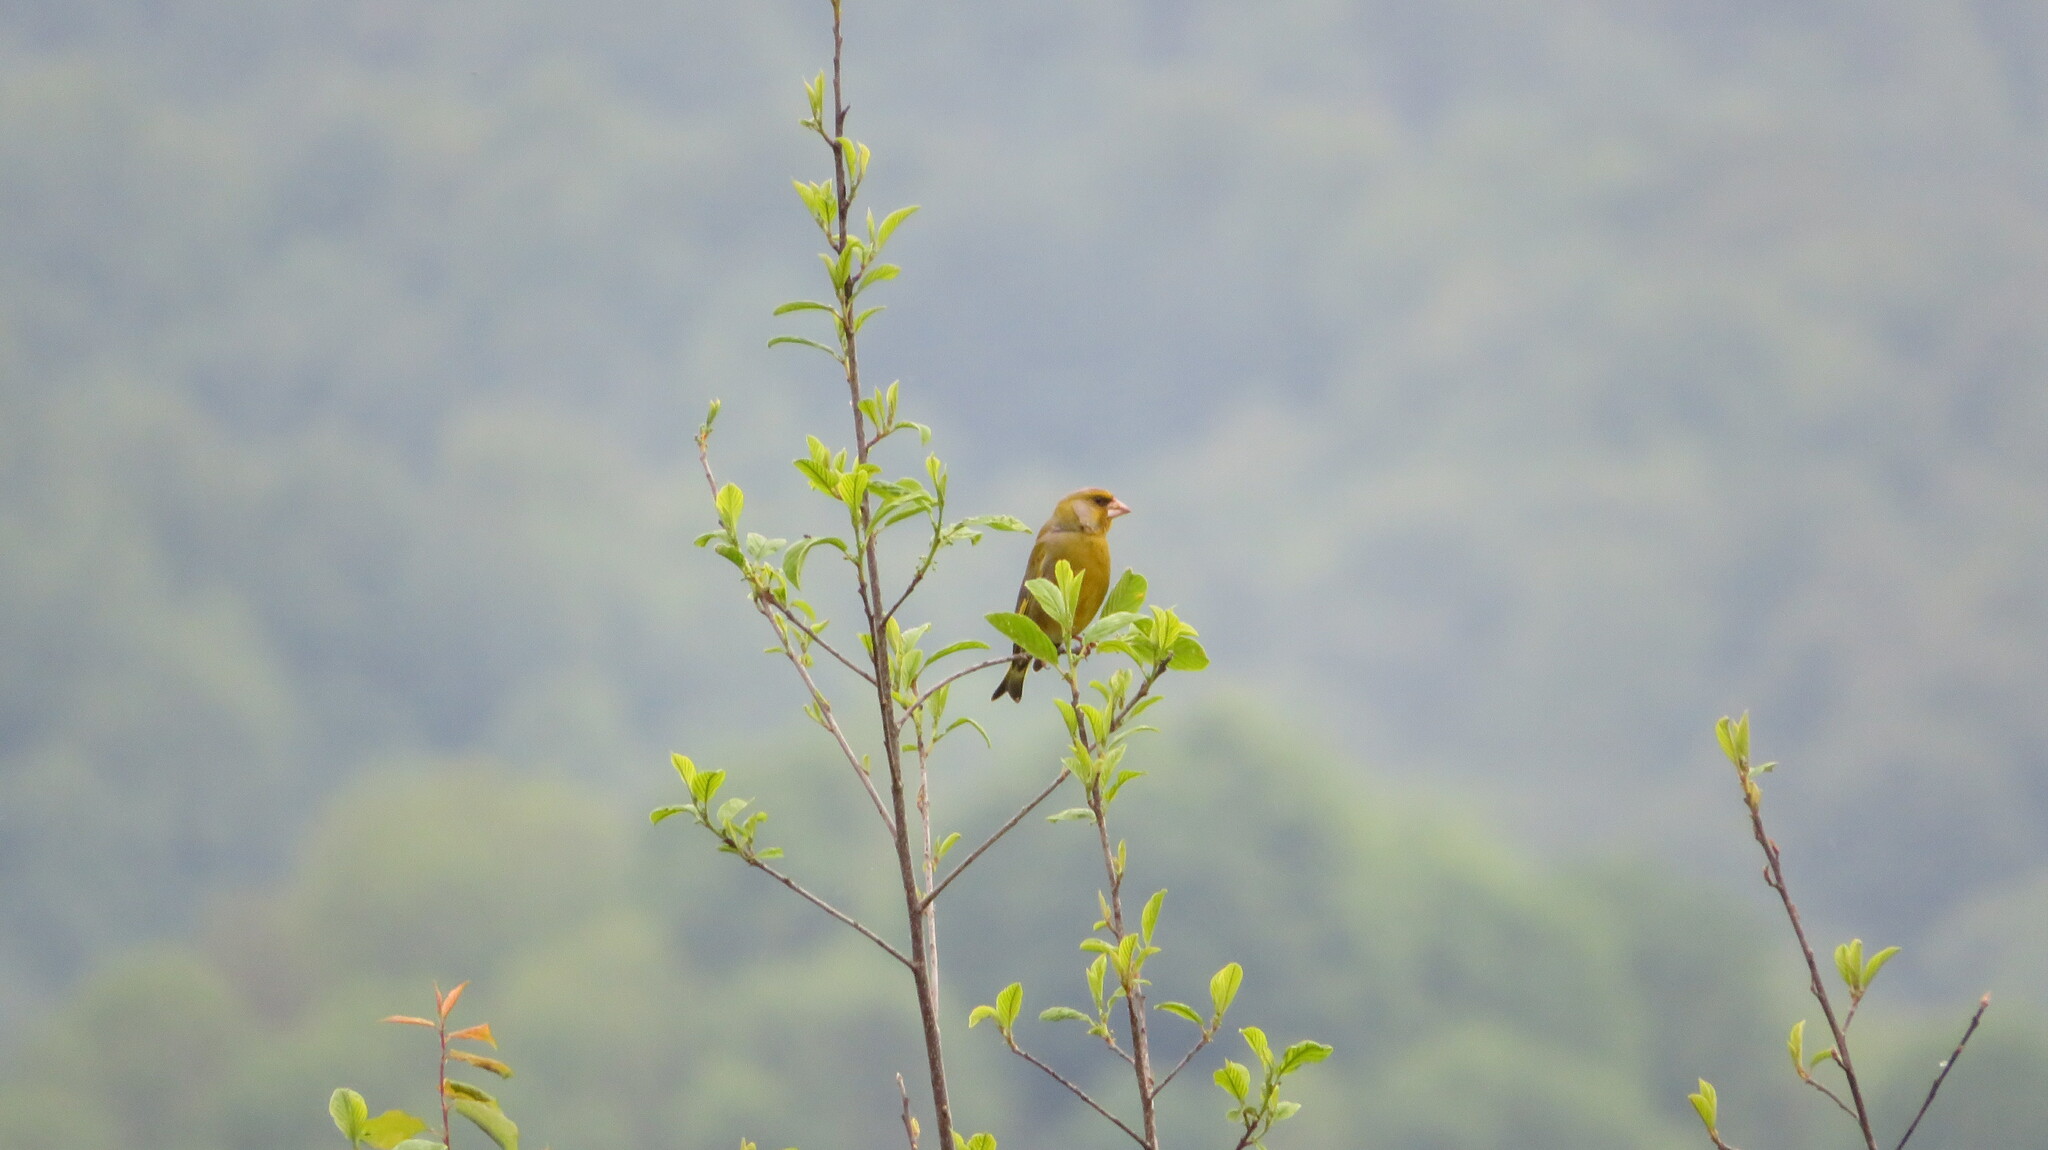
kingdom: Plantae
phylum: Tracheophyta
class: Liliopsida
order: Poales
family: Poaceae
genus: Chloris
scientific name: Chloris chloris
